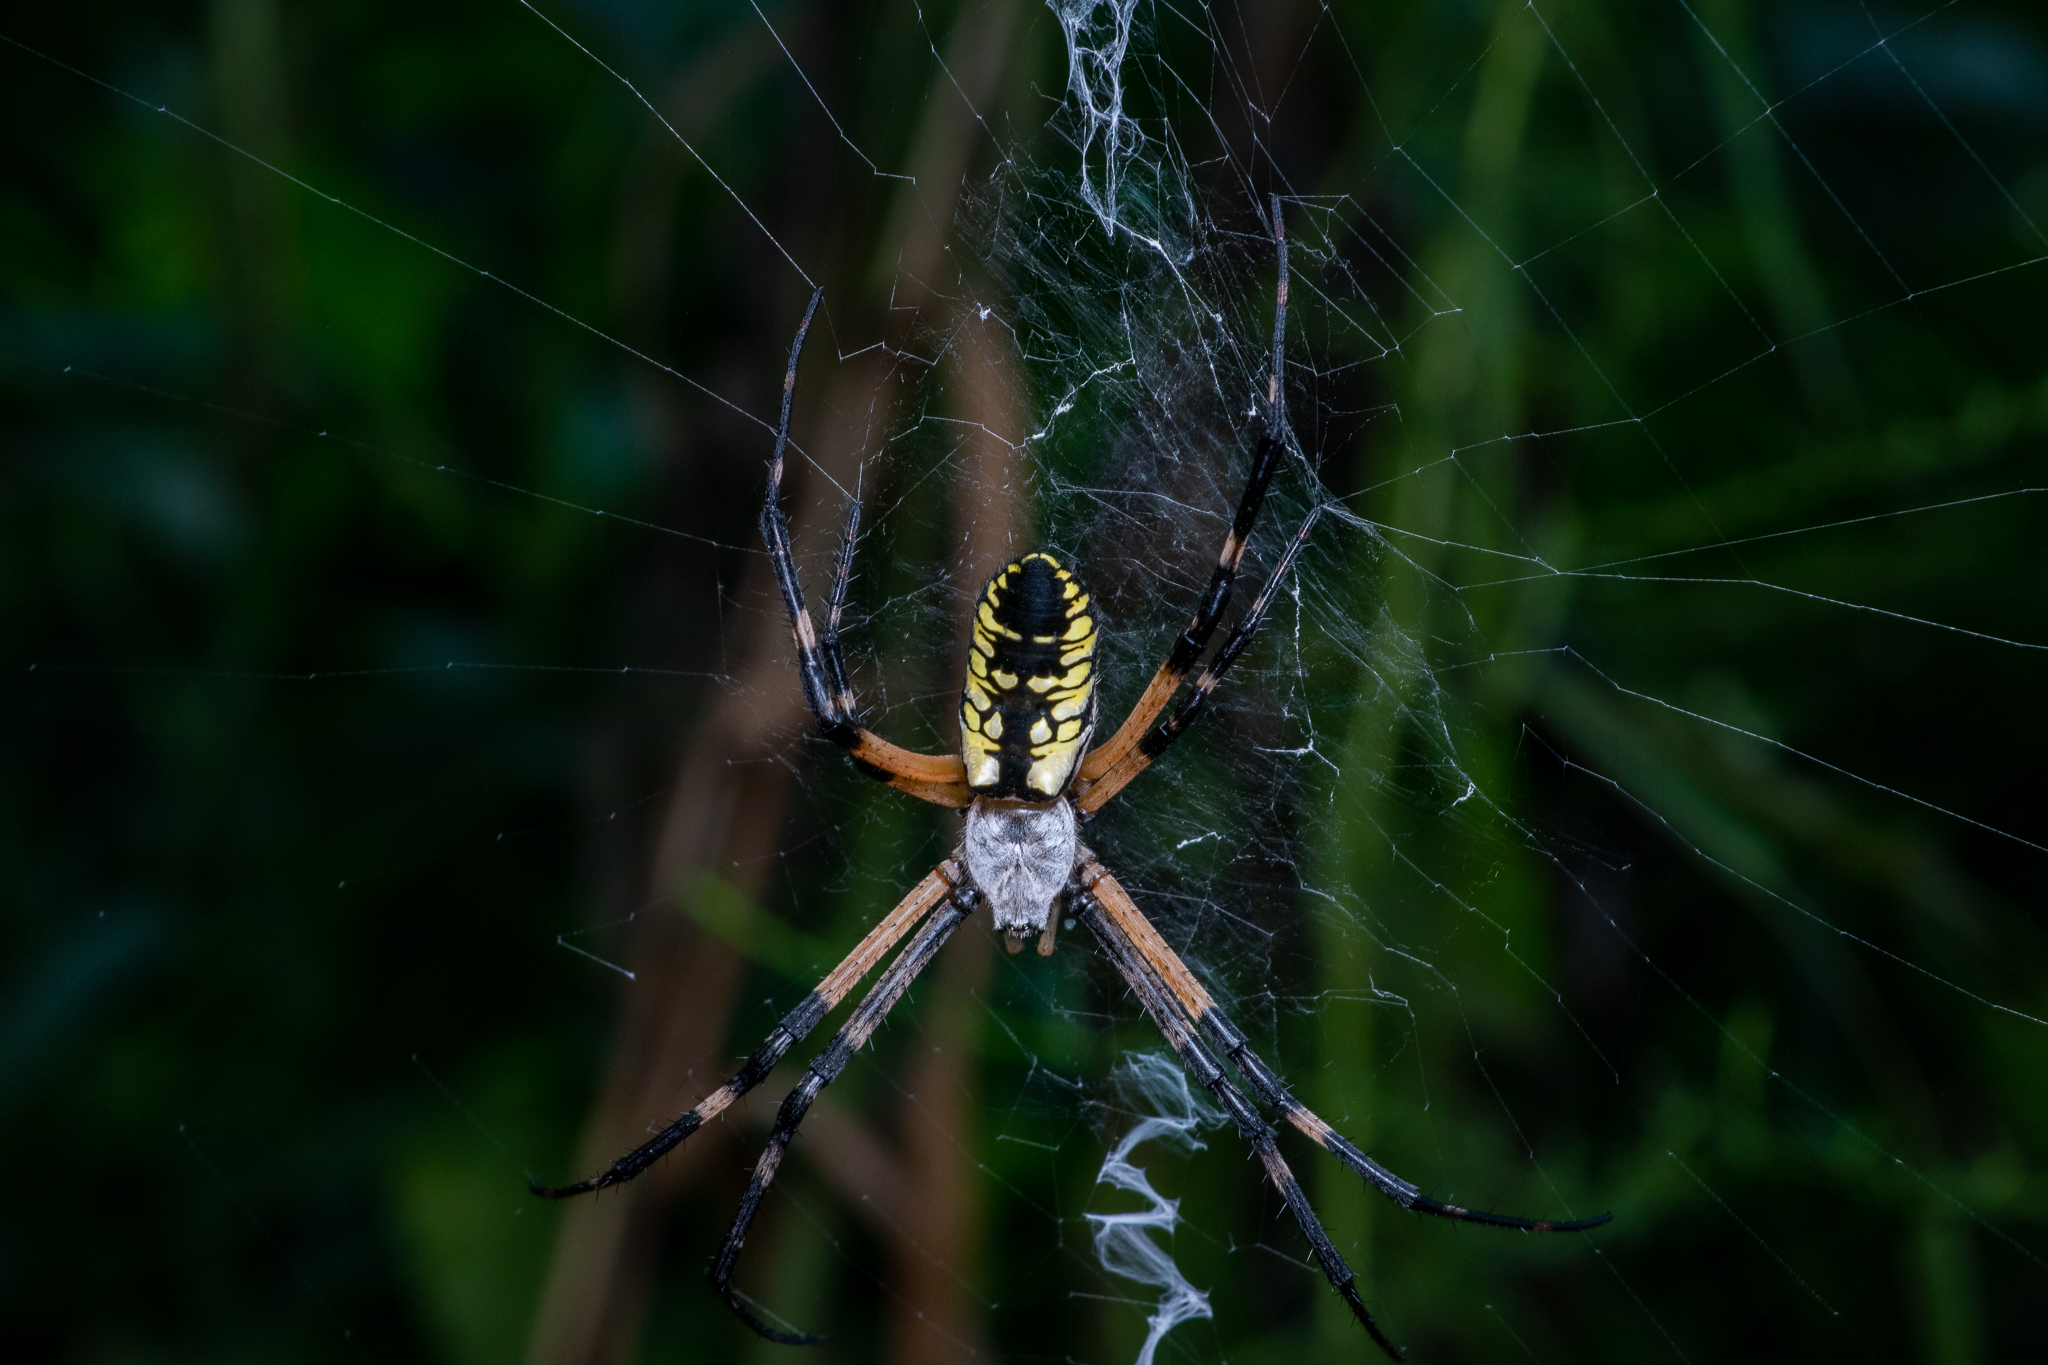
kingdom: Animalia
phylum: Arthropoda
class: Arachnida
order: Araneae
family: Araneidae
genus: Argiope
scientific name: Argiope aurantia
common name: Orb weavers
